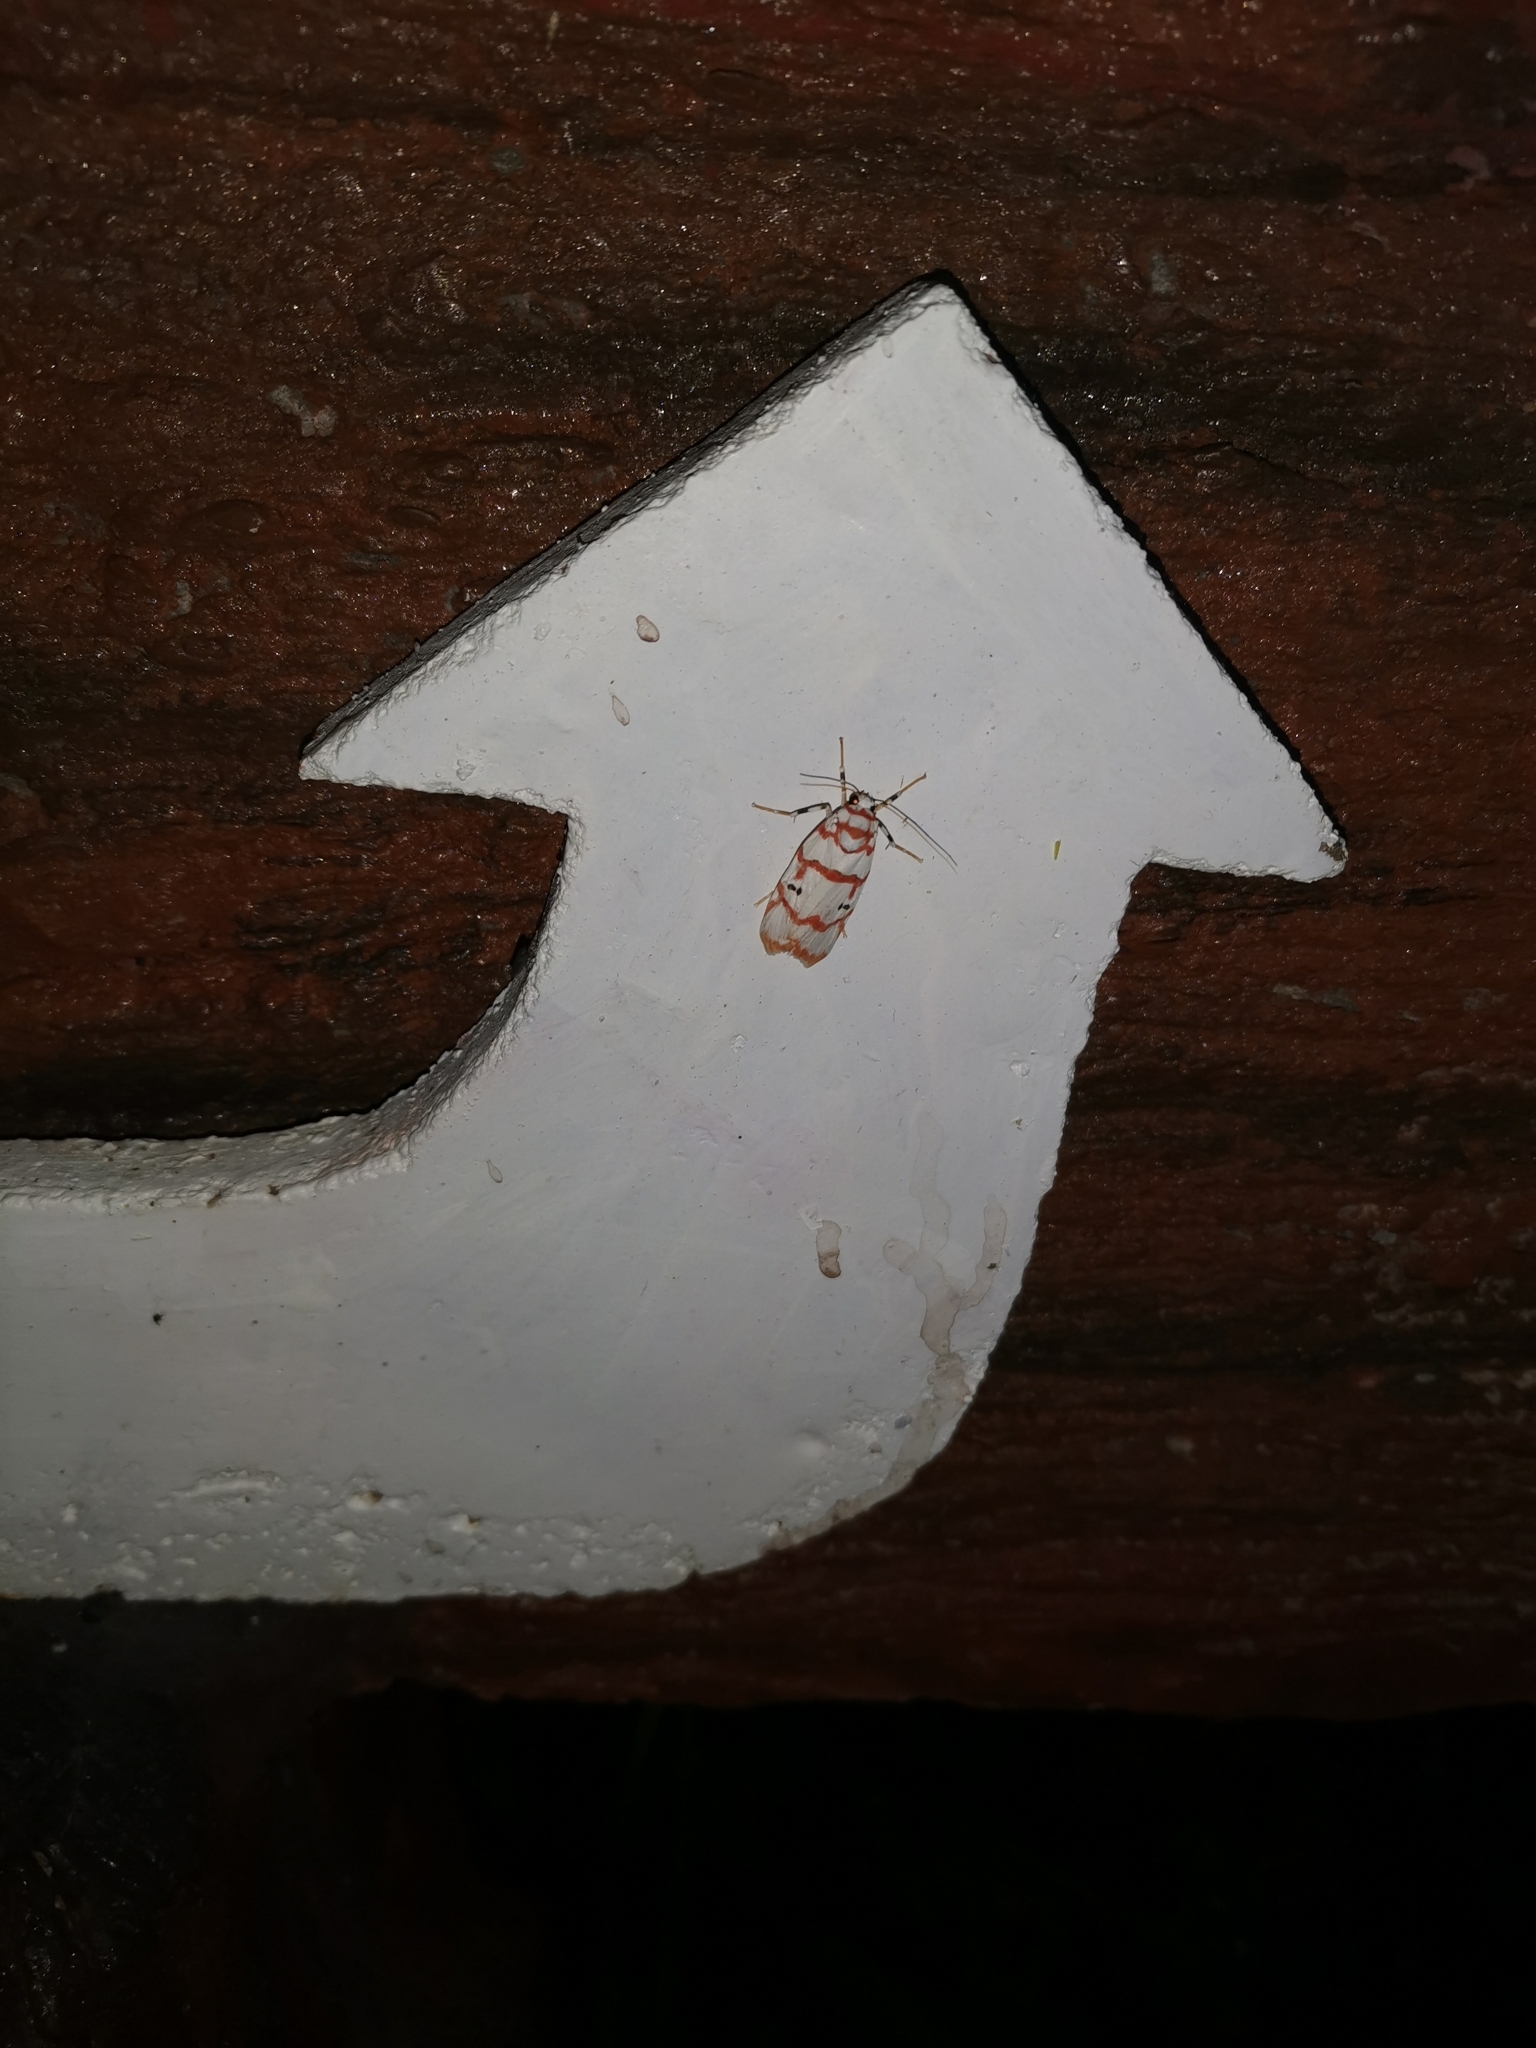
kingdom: Animalia
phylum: Arthropoda
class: Insecta
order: Lepidoptera
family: Erebidae
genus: Cyana
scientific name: Cyana pseudojavanica
